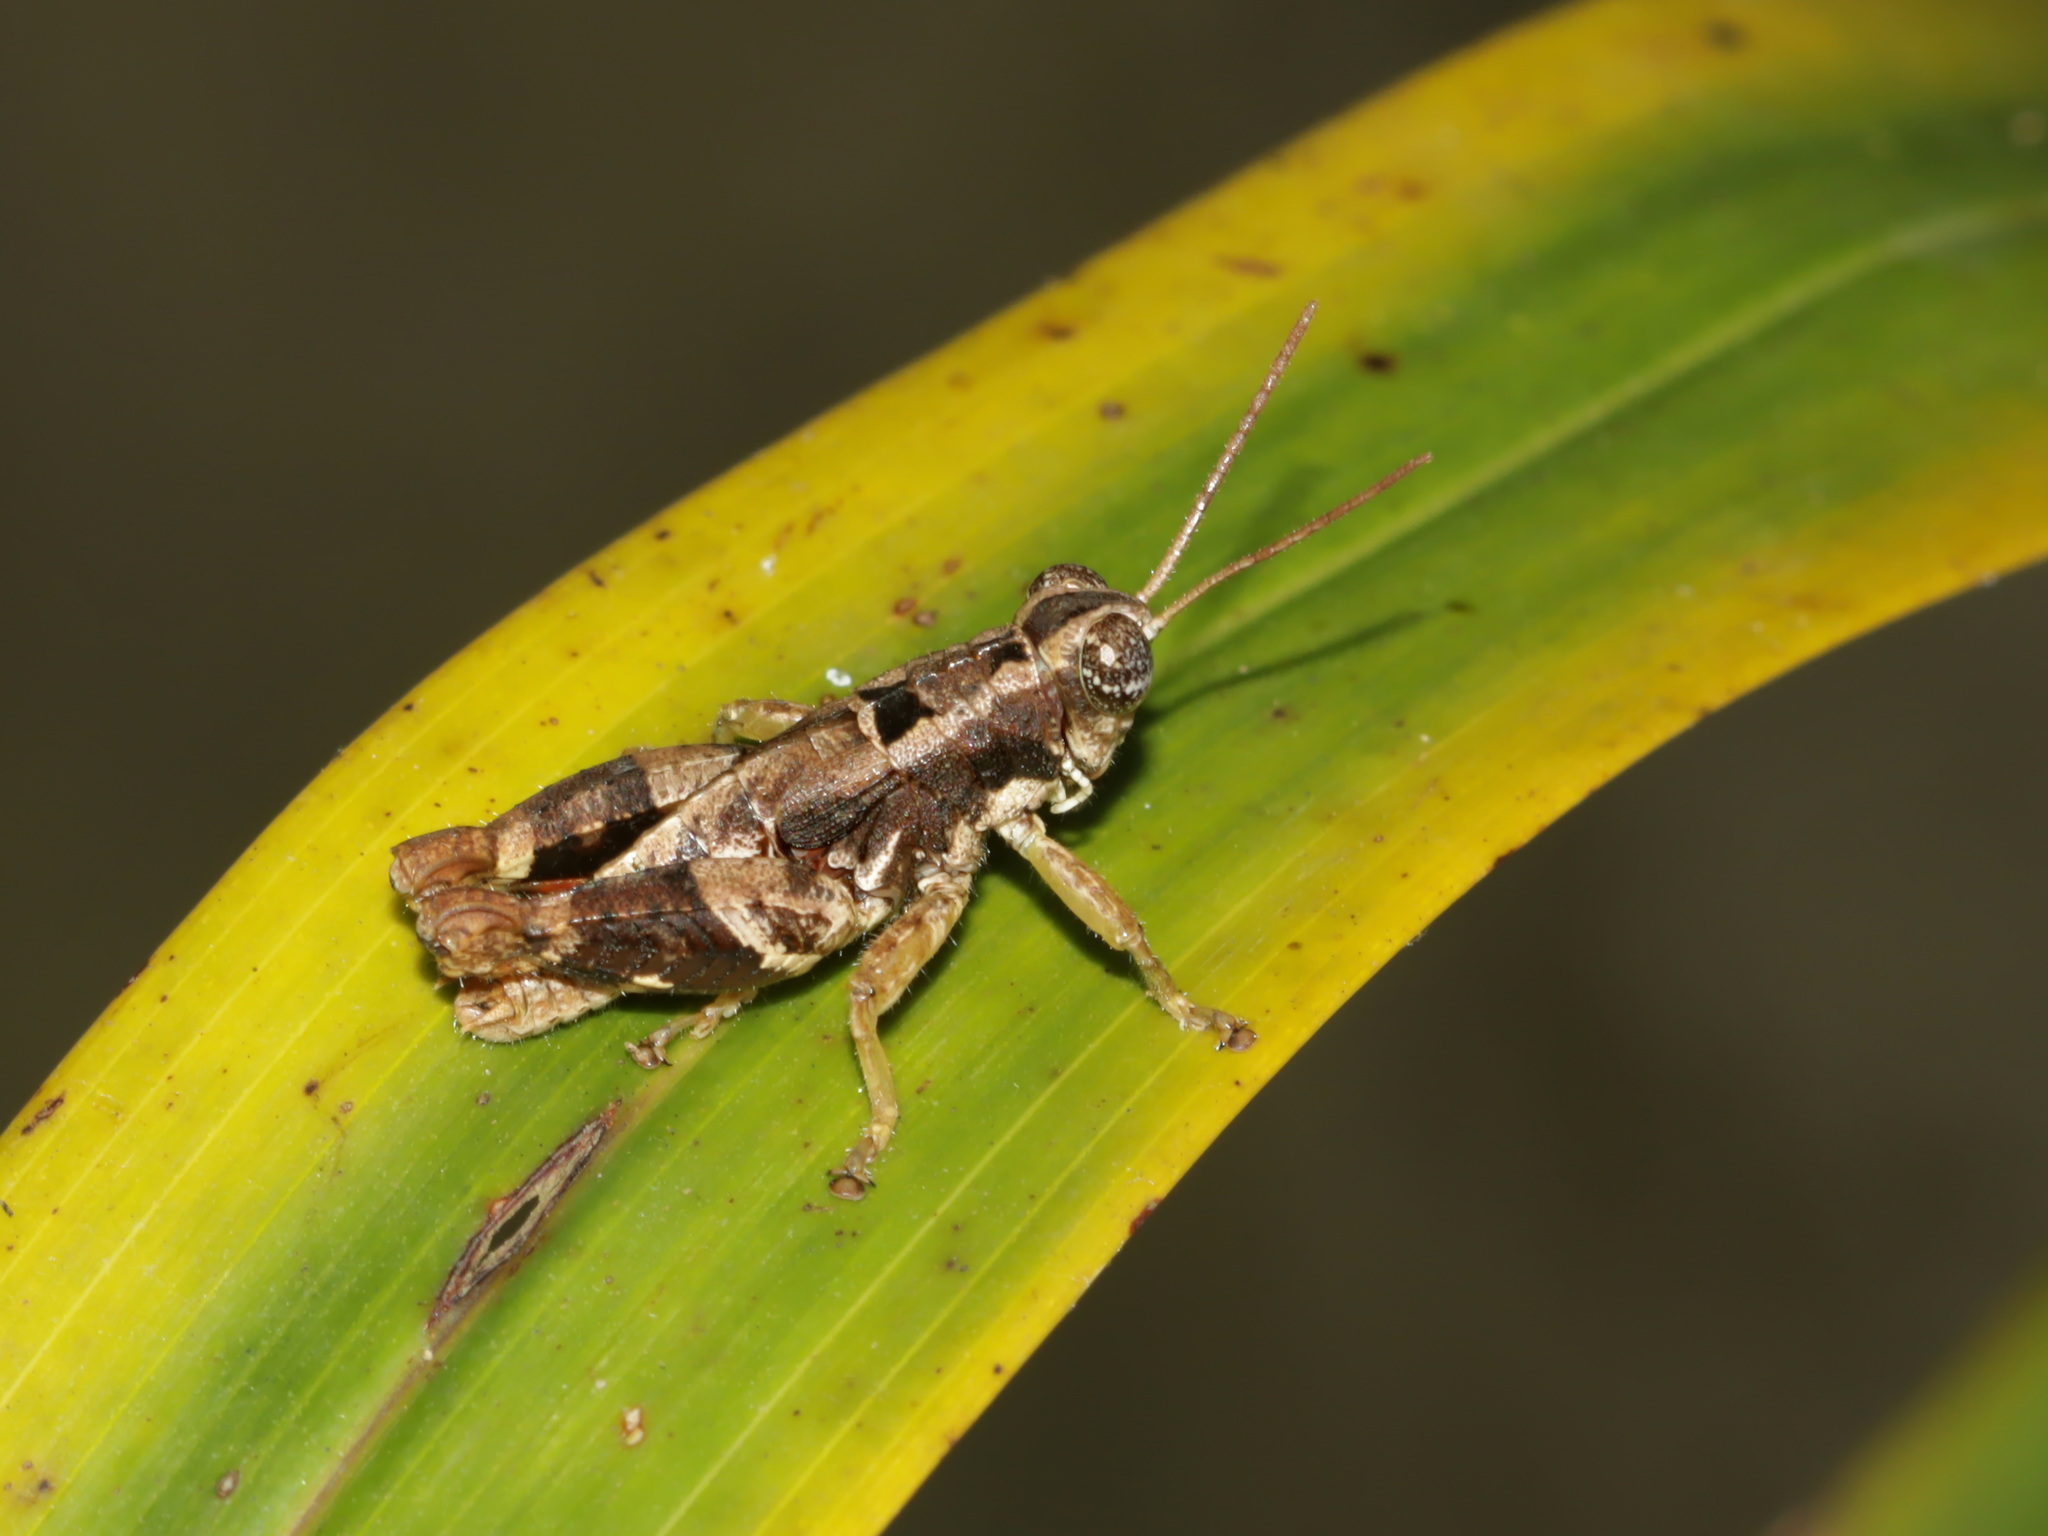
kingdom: Animalia
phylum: Arthropoda
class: Insecta
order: Orthoptera
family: Acrididae
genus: Habrocnemis
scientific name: Habrocnemis shanensis
